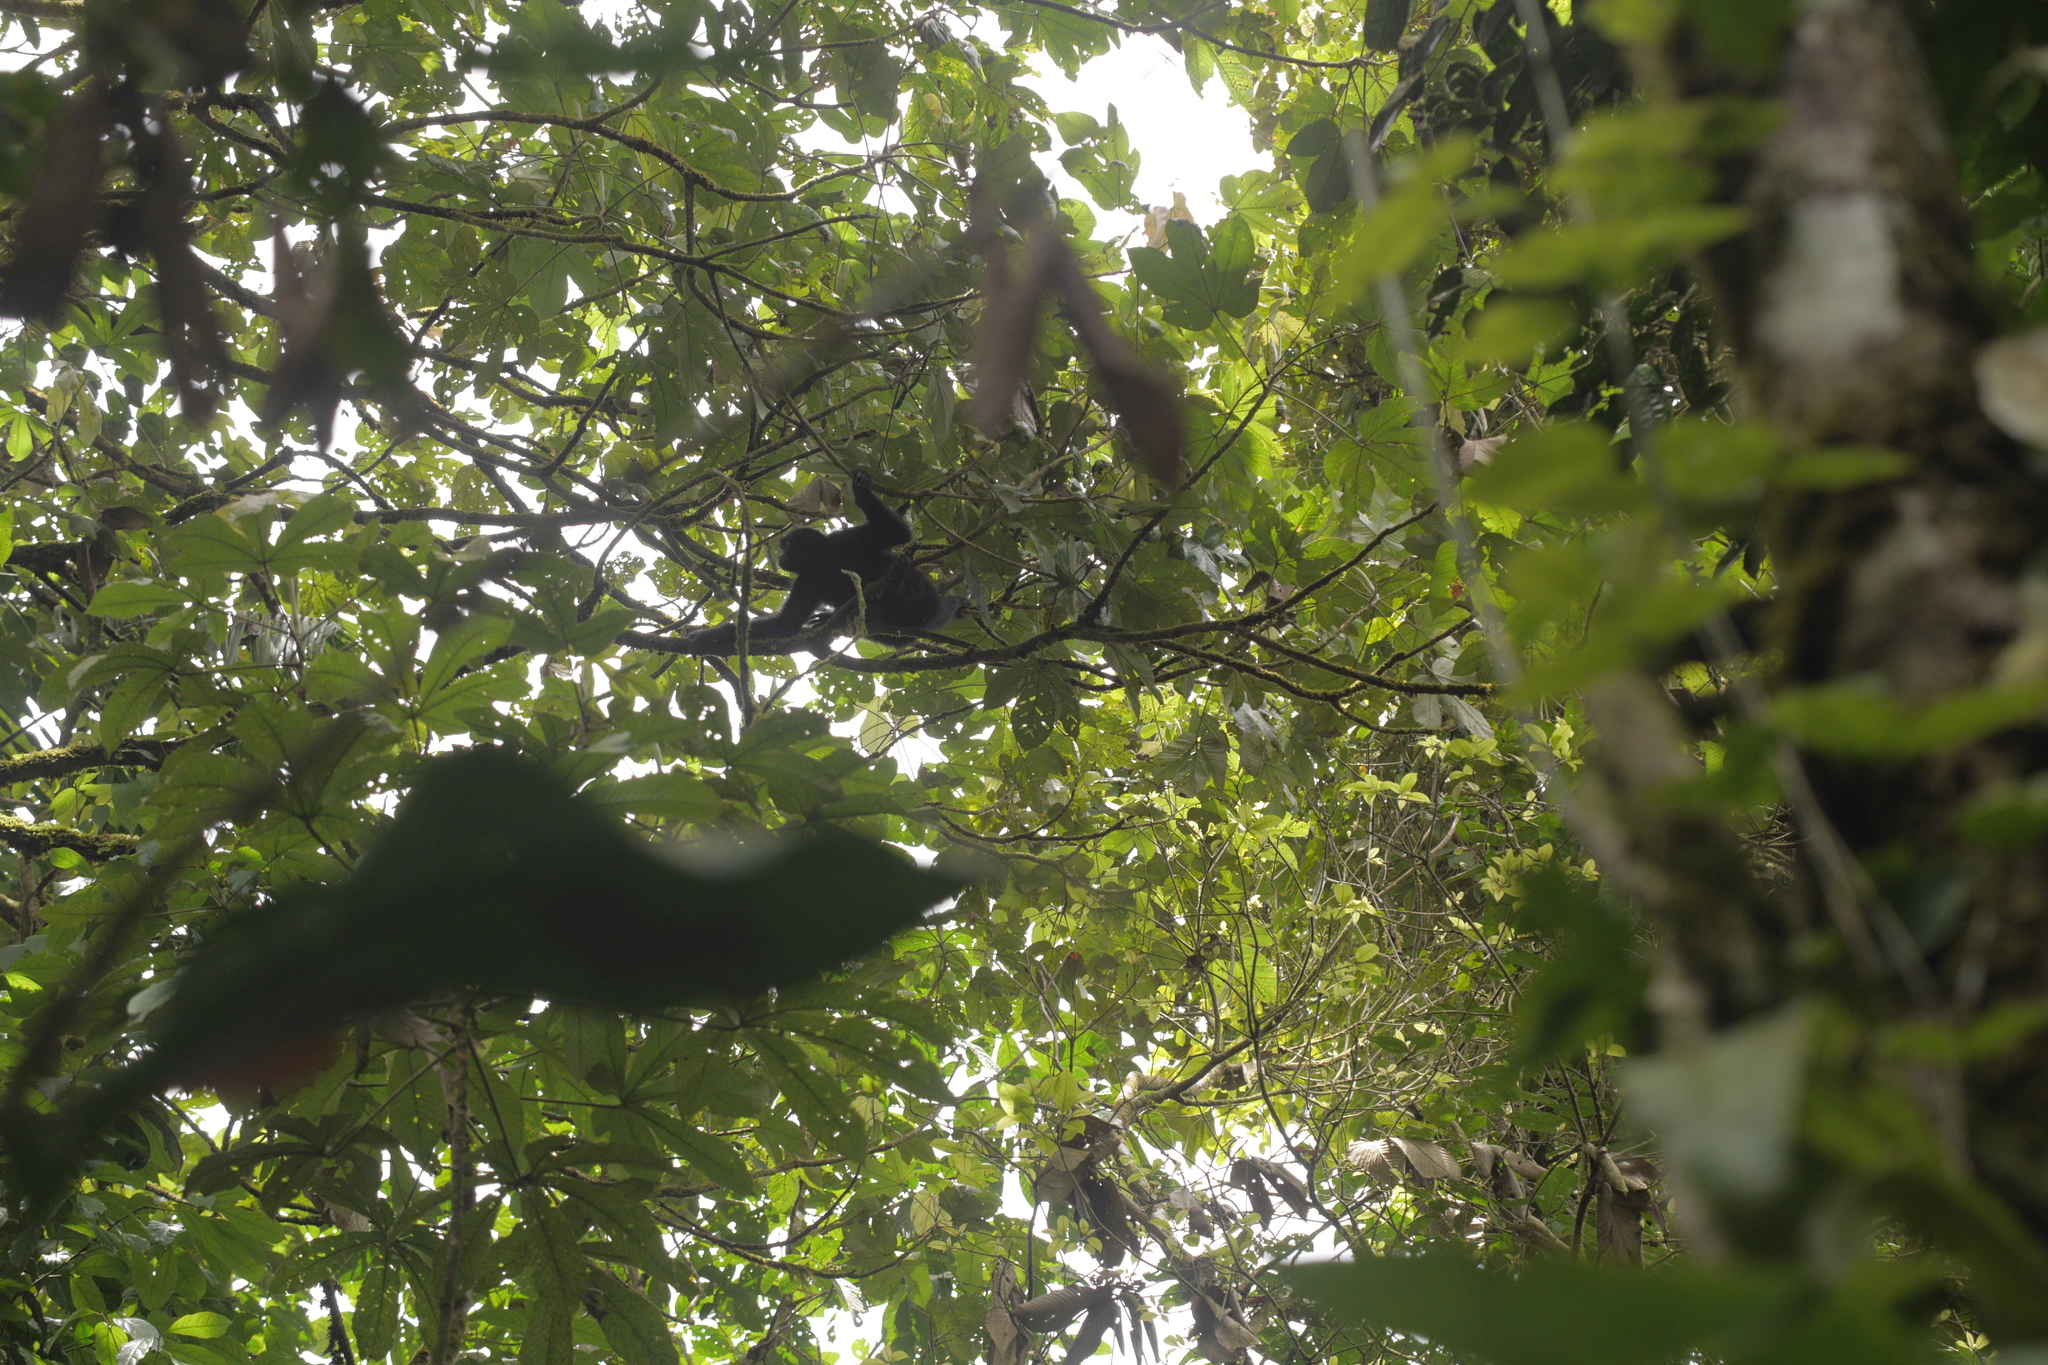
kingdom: Animalia
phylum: Chordata
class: Mammalia
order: Primates
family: Atelidae
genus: Alouatta
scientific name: Alouatta palliata
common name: Mantled howler
